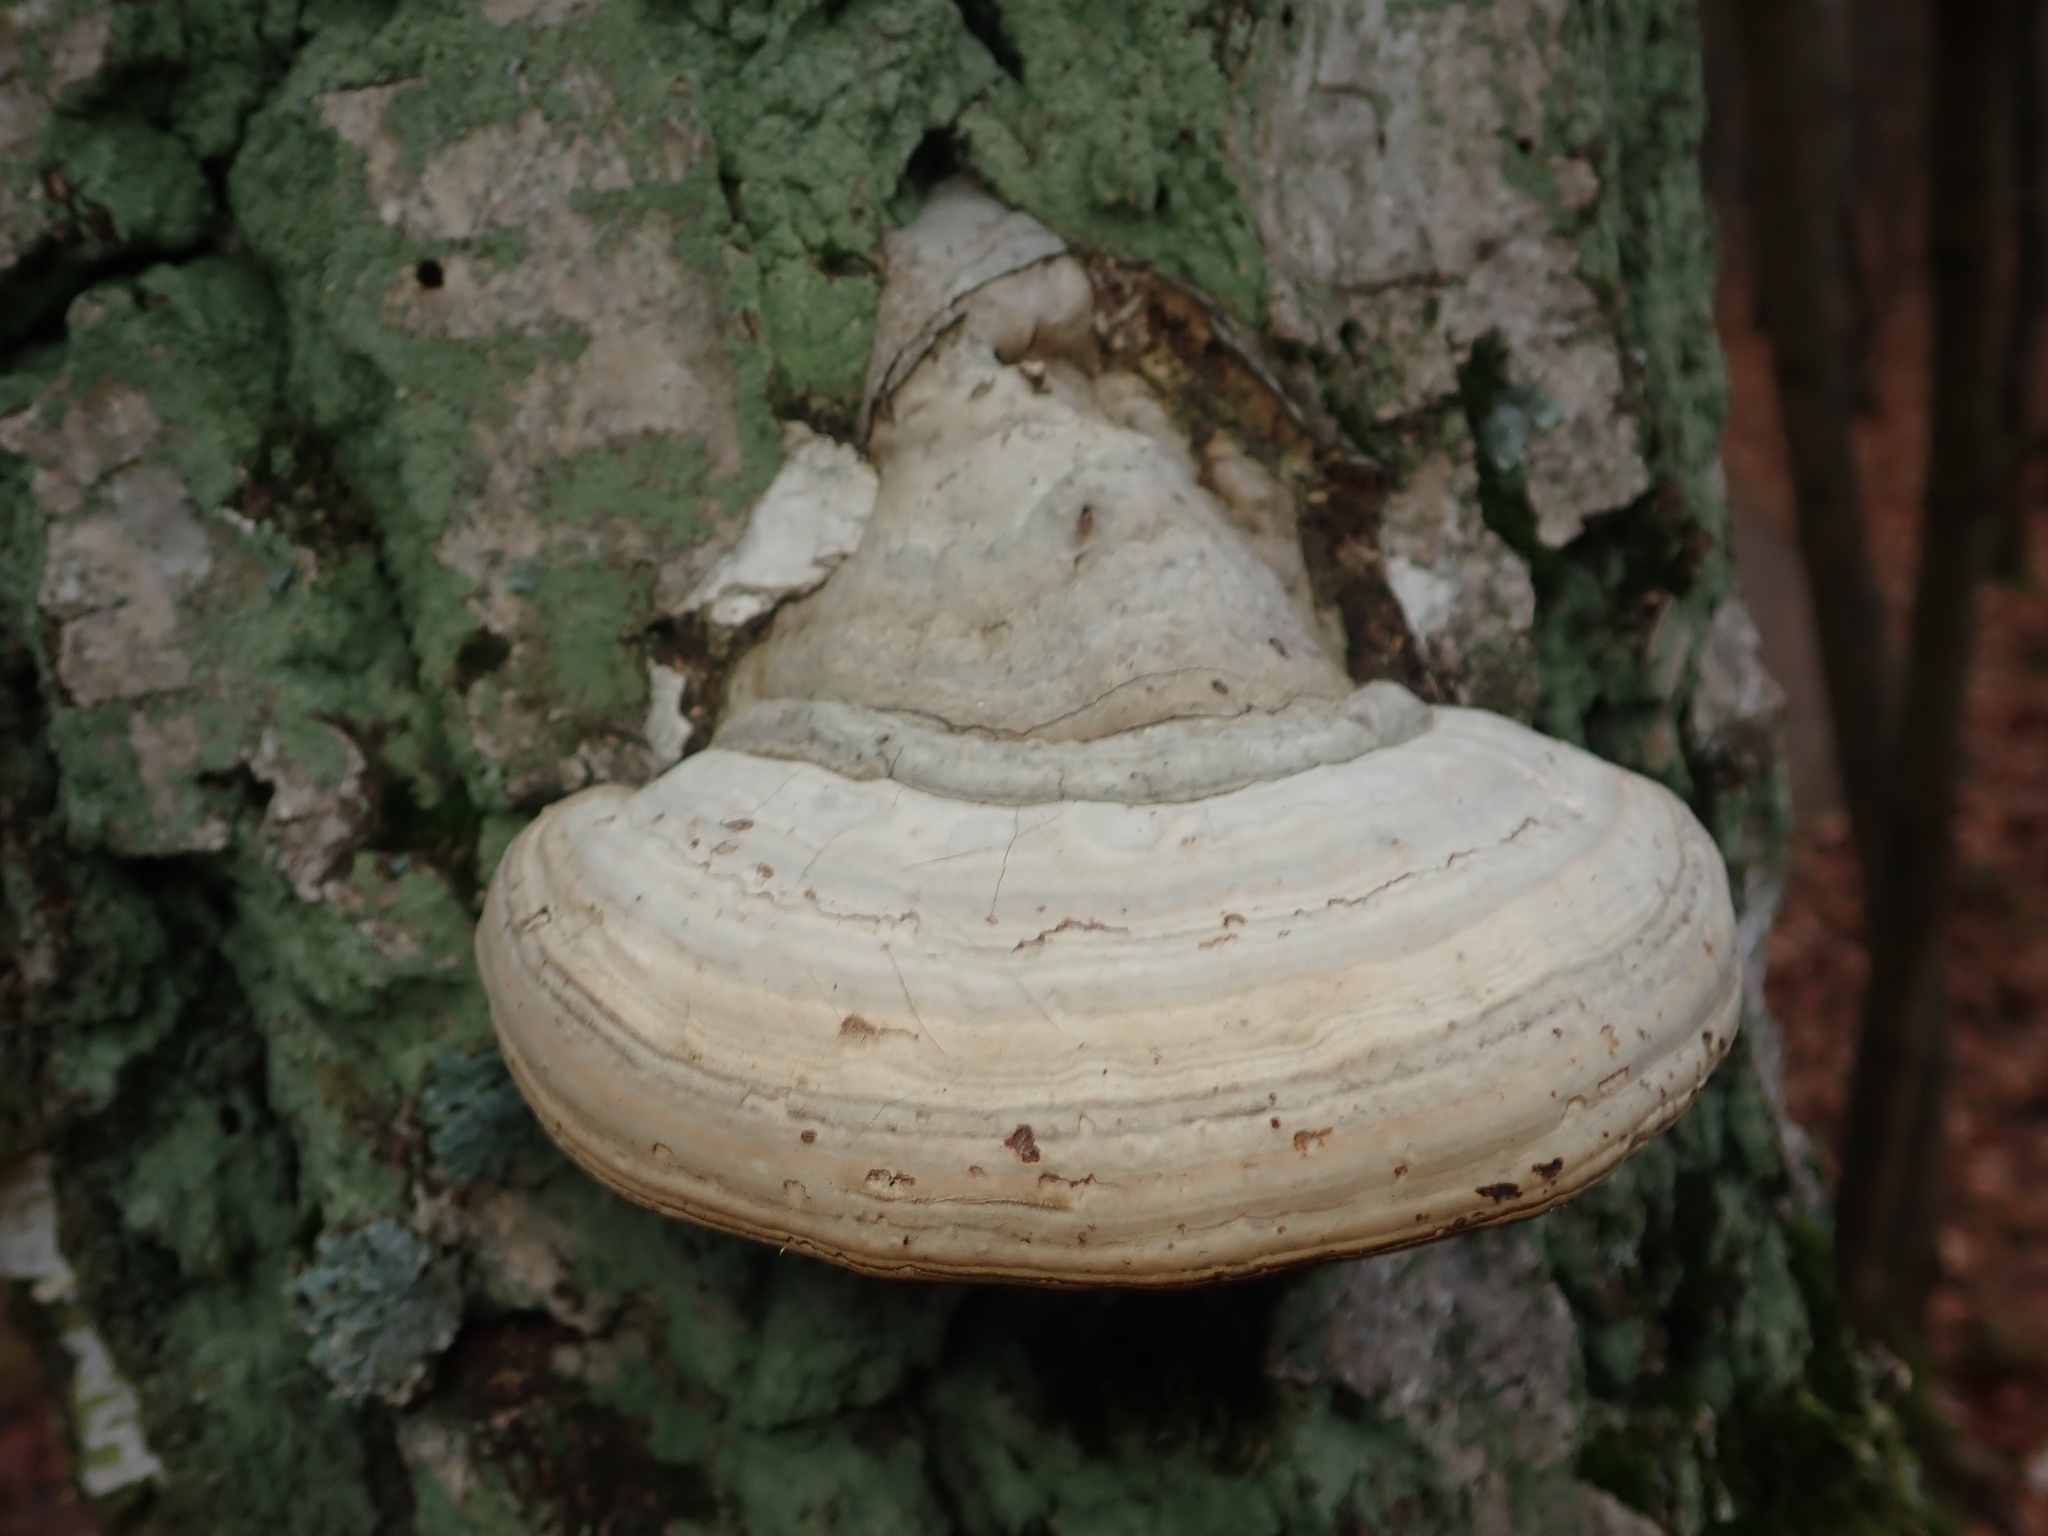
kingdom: Fungi
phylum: Basidiomycota
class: Agaricomycetes
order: Polyporales
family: Polyporaceae
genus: Fomes
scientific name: Fomes fomentarius
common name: Hoof fungus
